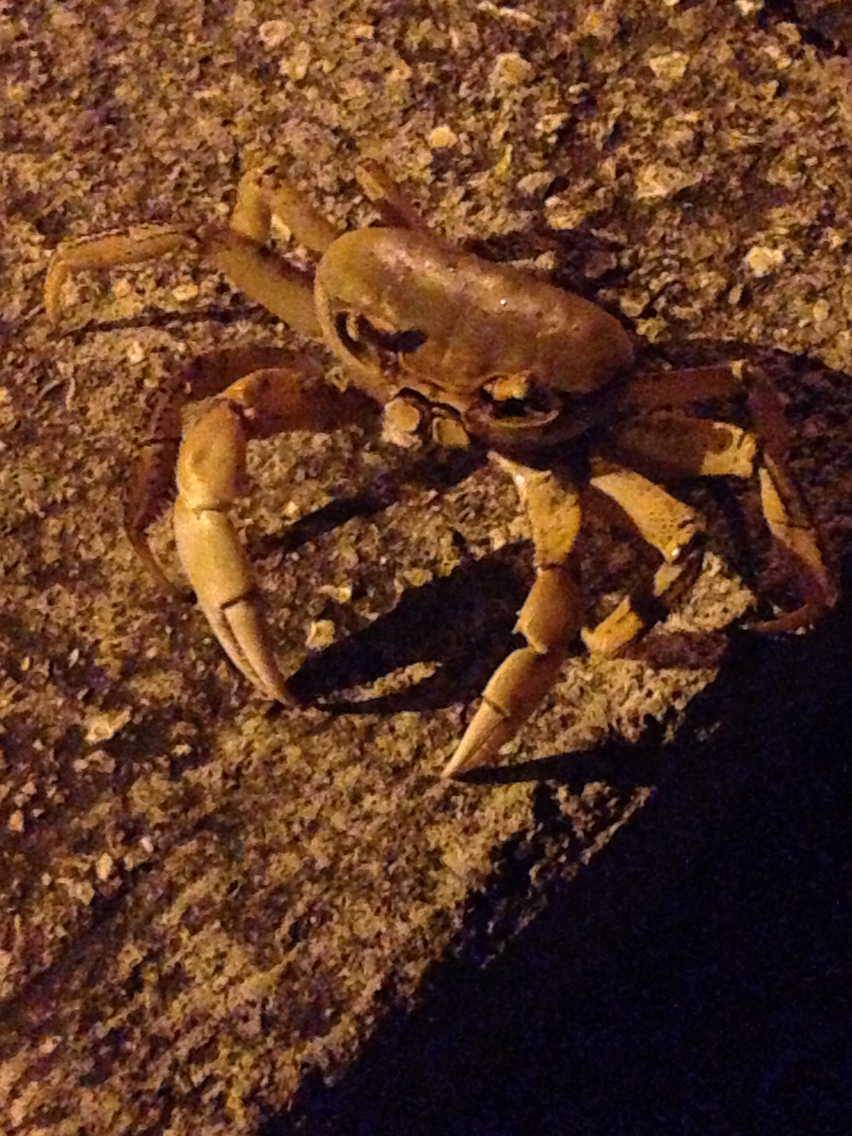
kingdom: Animalia
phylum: Arthropoda
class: Malacostraca
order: Decapoda
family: Gecarcinidae
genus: Cardisoma
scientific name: Cardisoma guanhumi
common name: Great land crab
